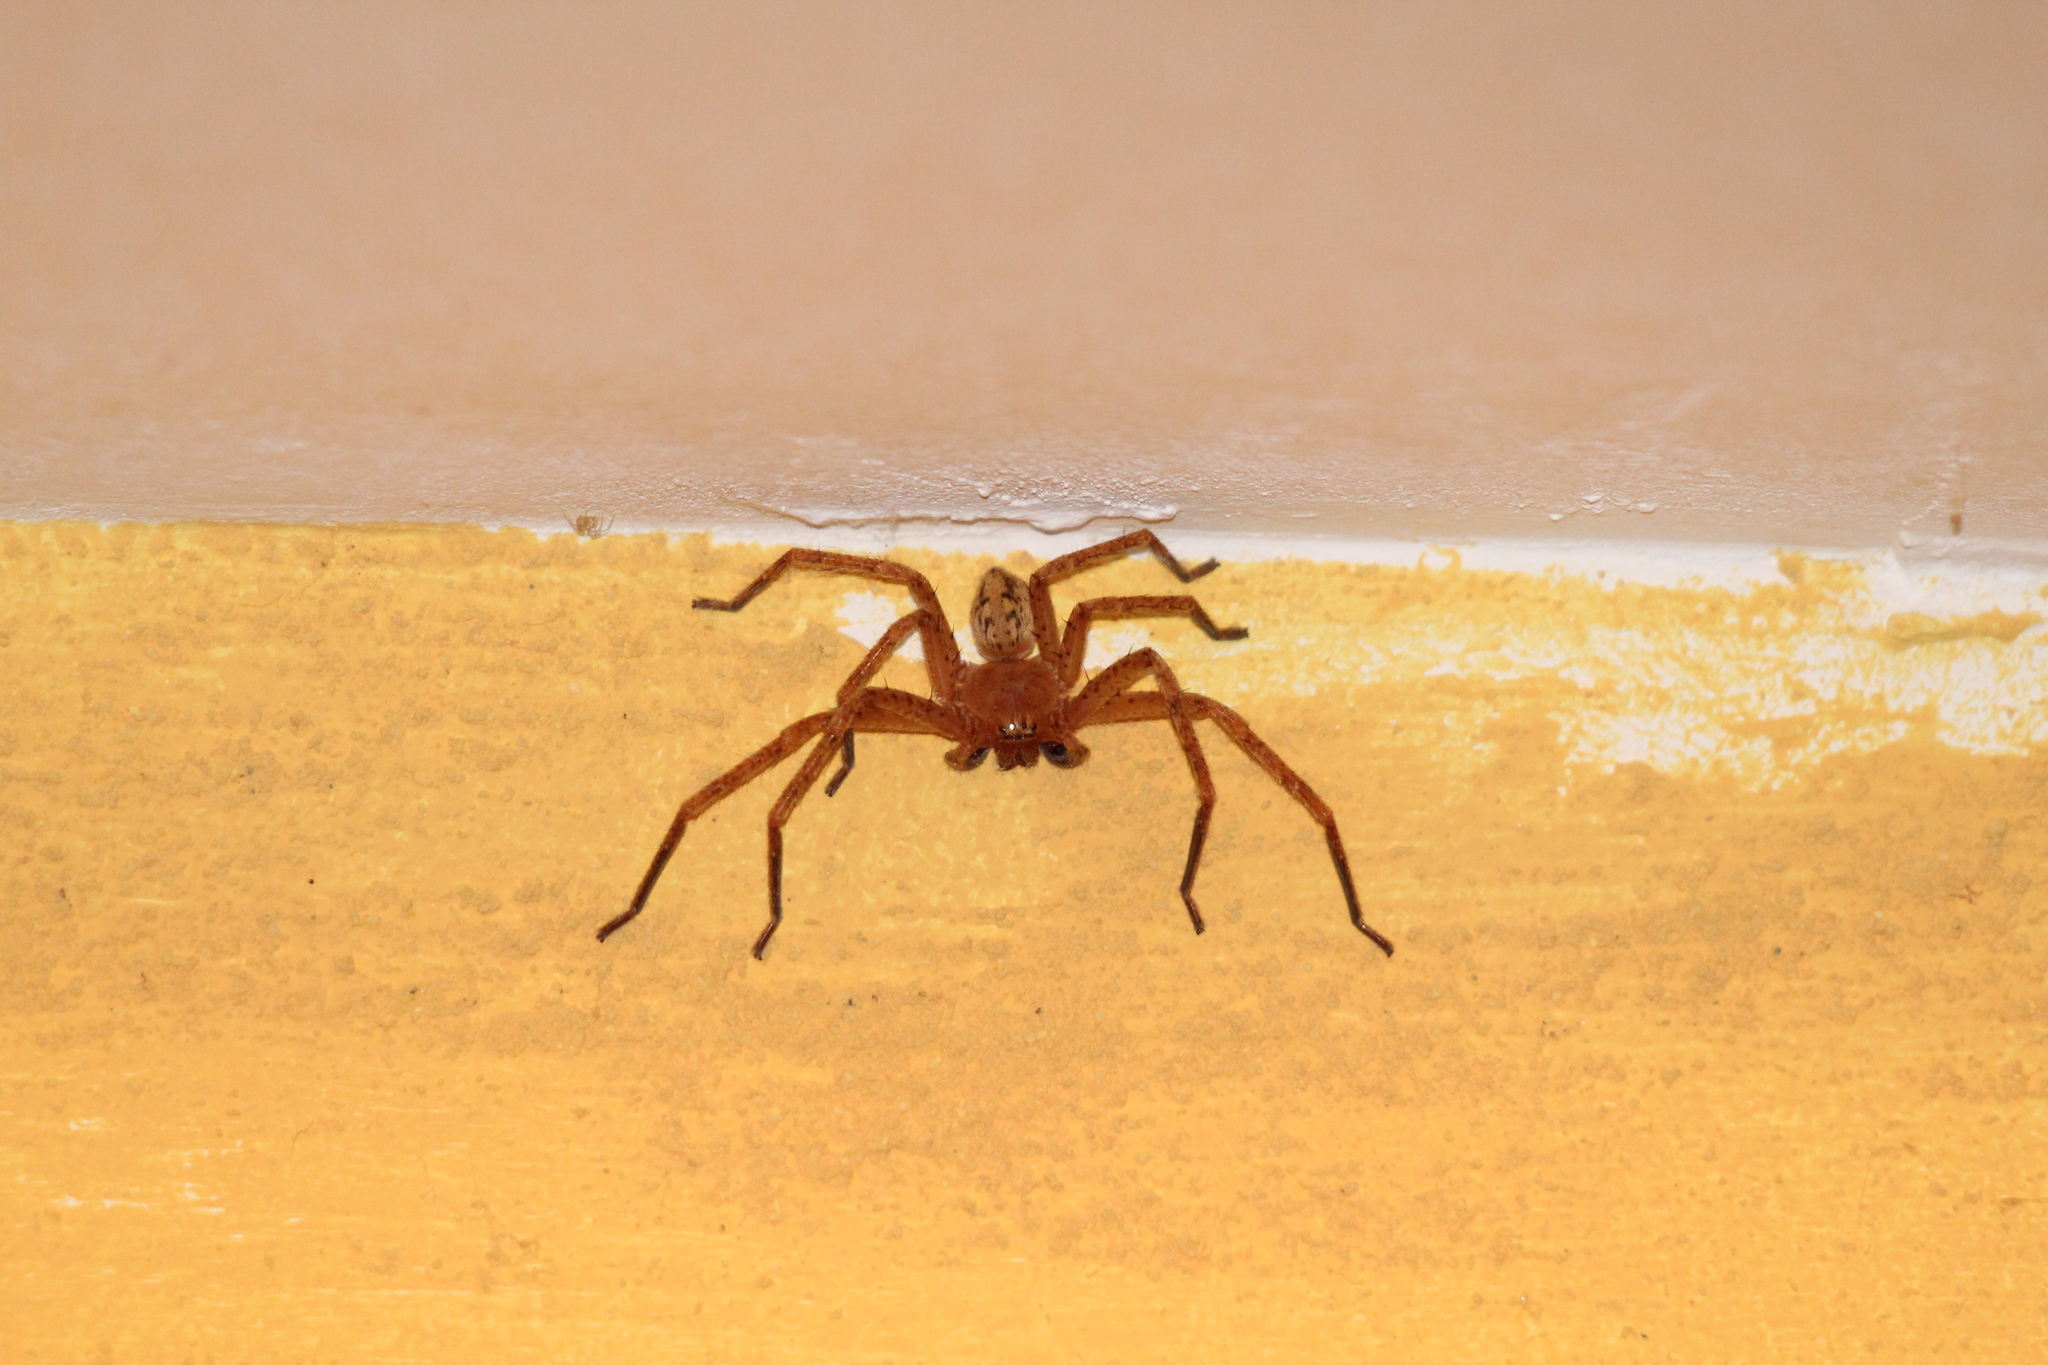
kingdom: Animalia
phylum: Arthropoda
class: Arachnida
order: Araneae
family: Sparassidae
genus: Olios
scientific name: Olios argelasius
